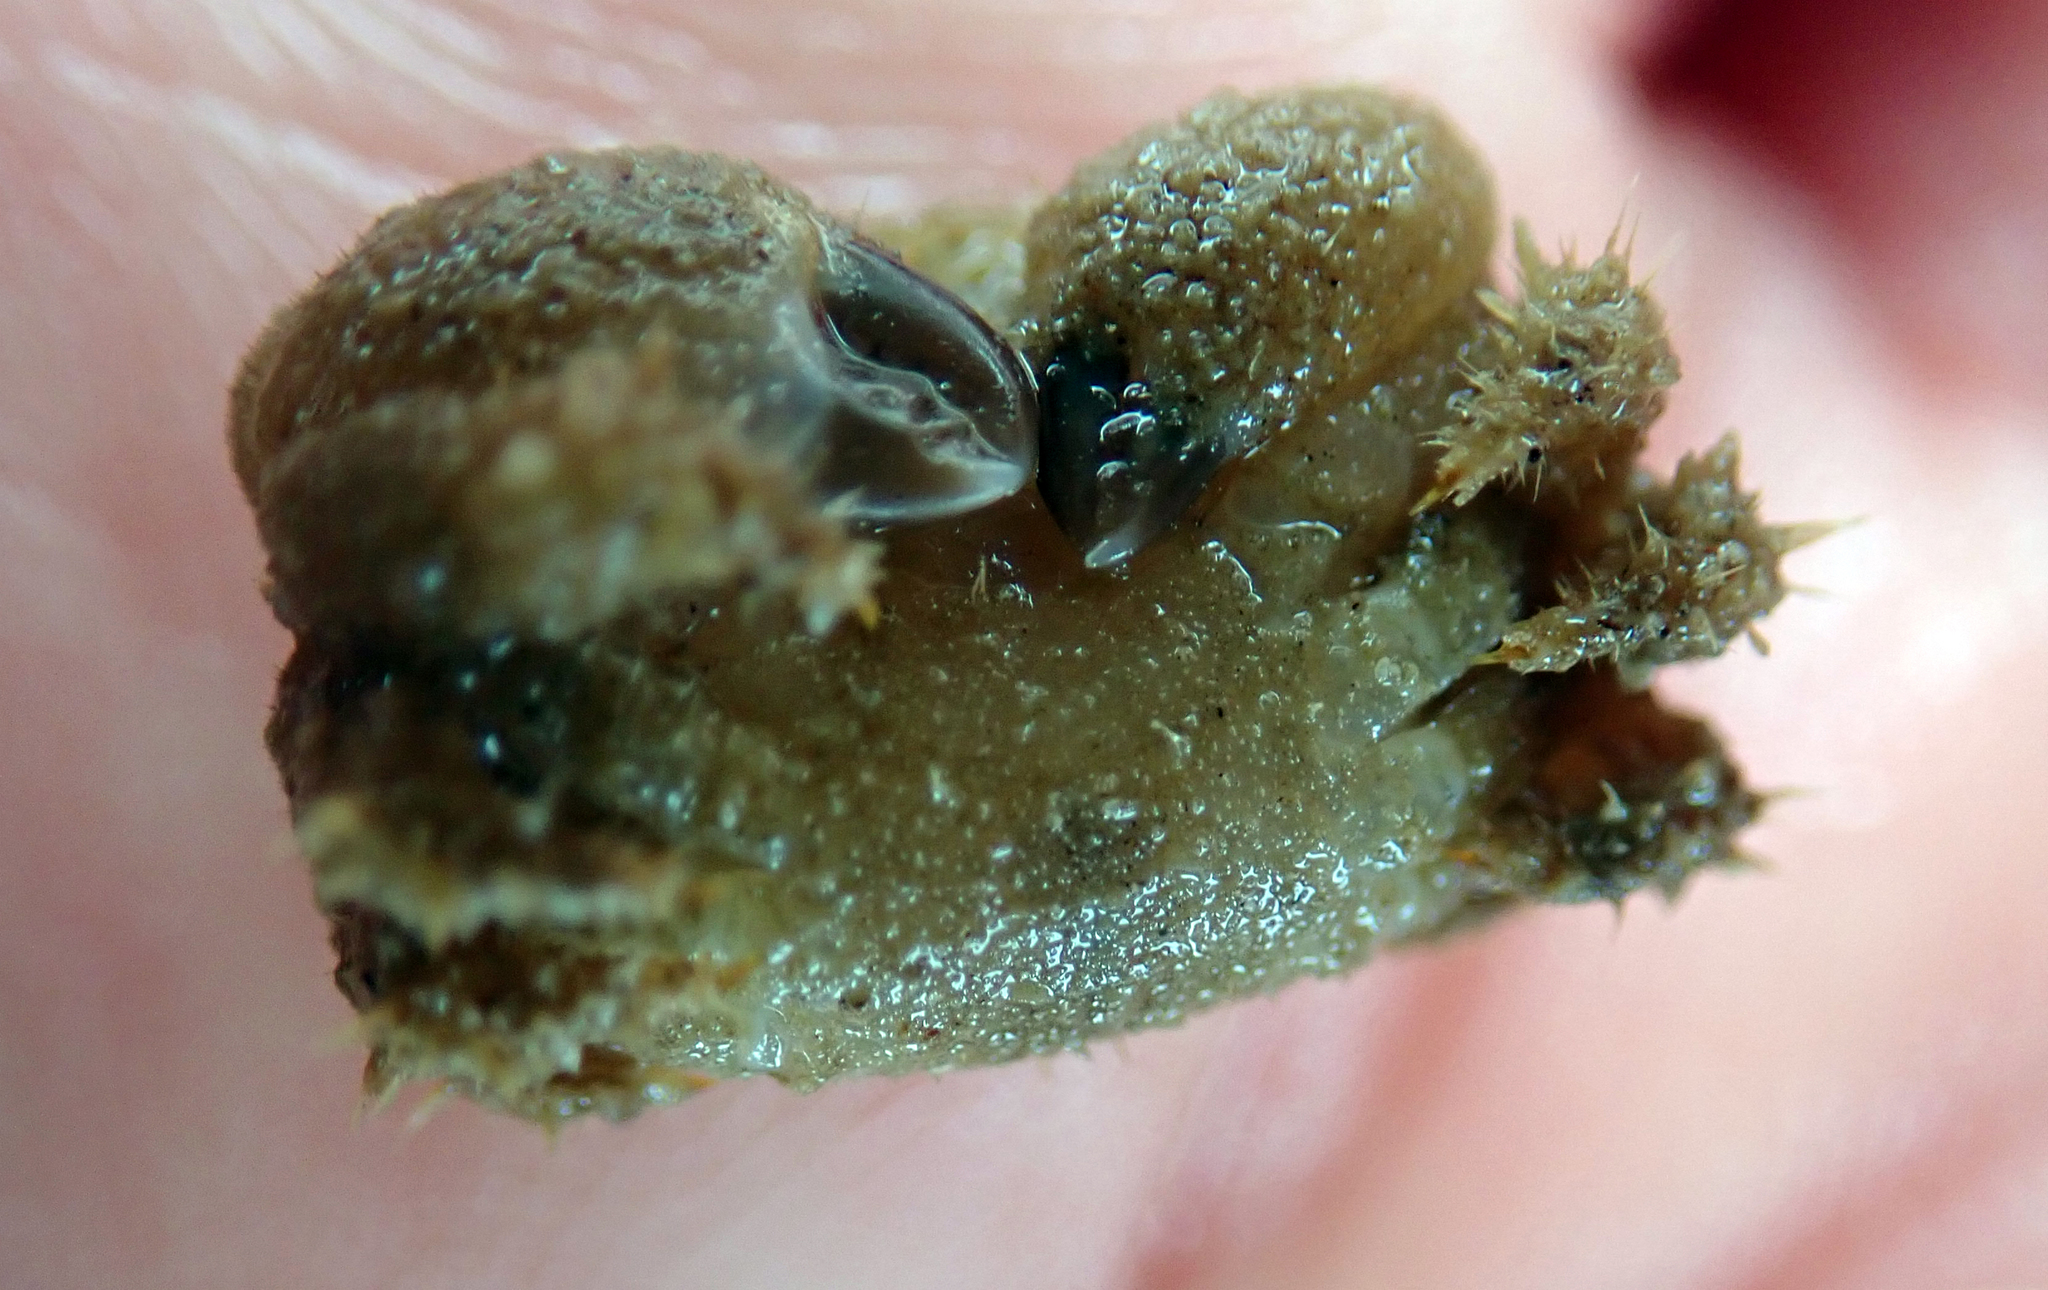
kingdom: Animalia
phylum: Arthropoda
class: Malacostraca
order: Decapoda
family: Pilumnidae
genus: Pilumnus
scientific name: Pilumnus lumpinus
